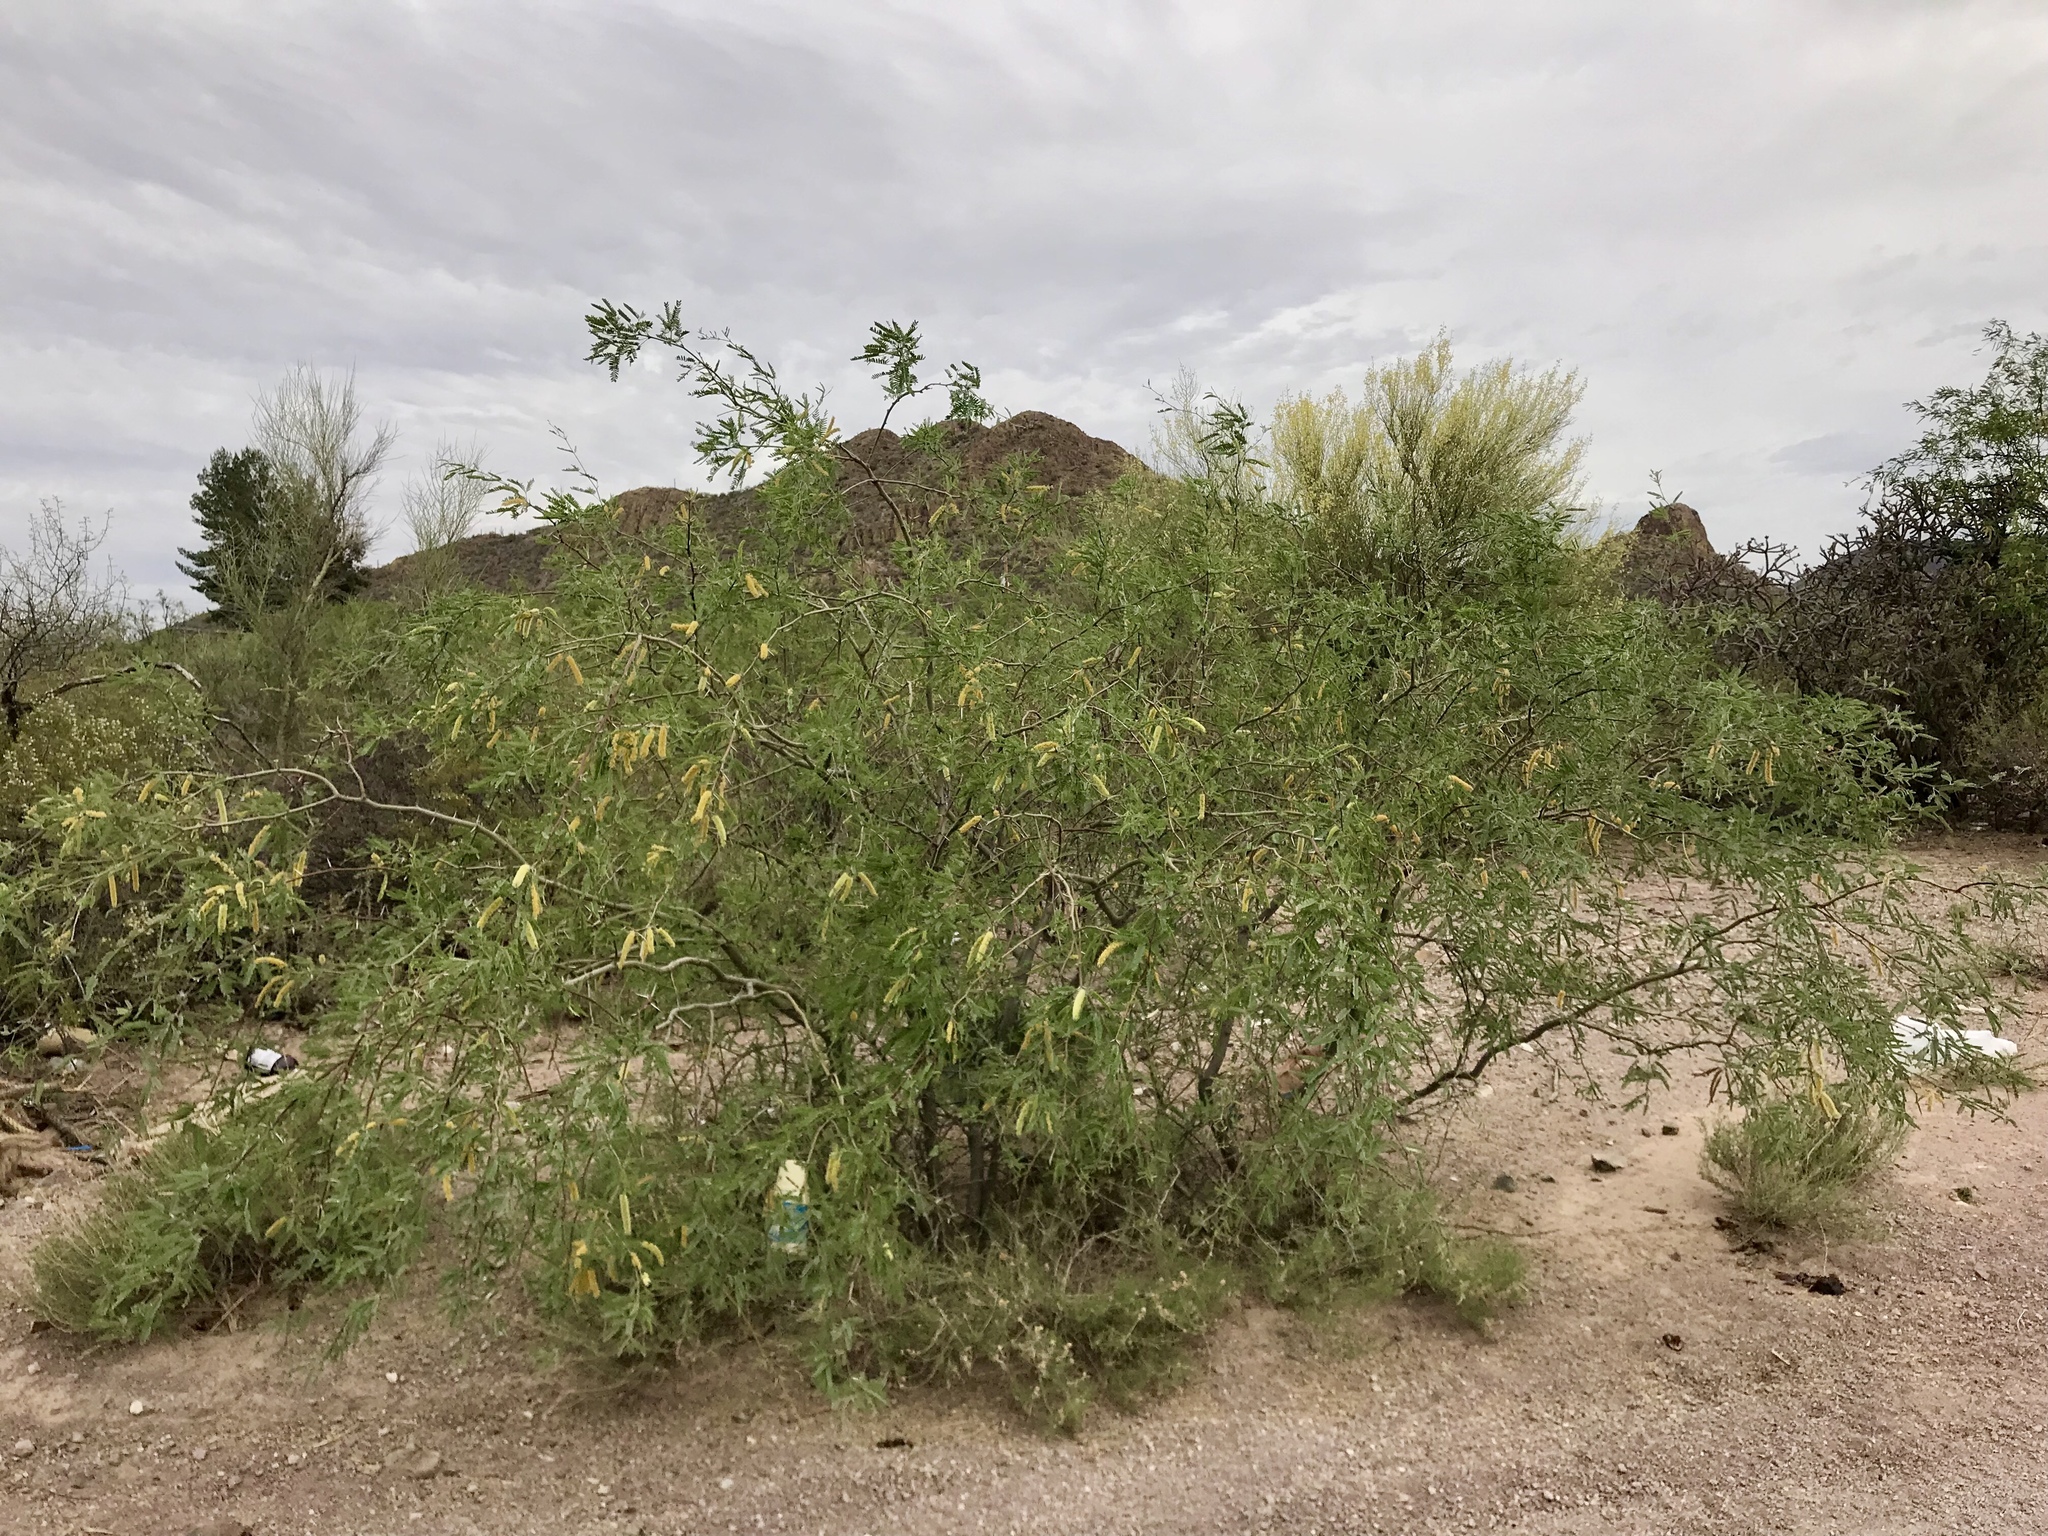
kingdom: Plantae
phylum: Tracheophyta
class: Magnoliopsida
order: Fabales
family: Fabaceae
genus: Prosopis
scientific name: Prosopis velutina
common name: Velvet mesquite
